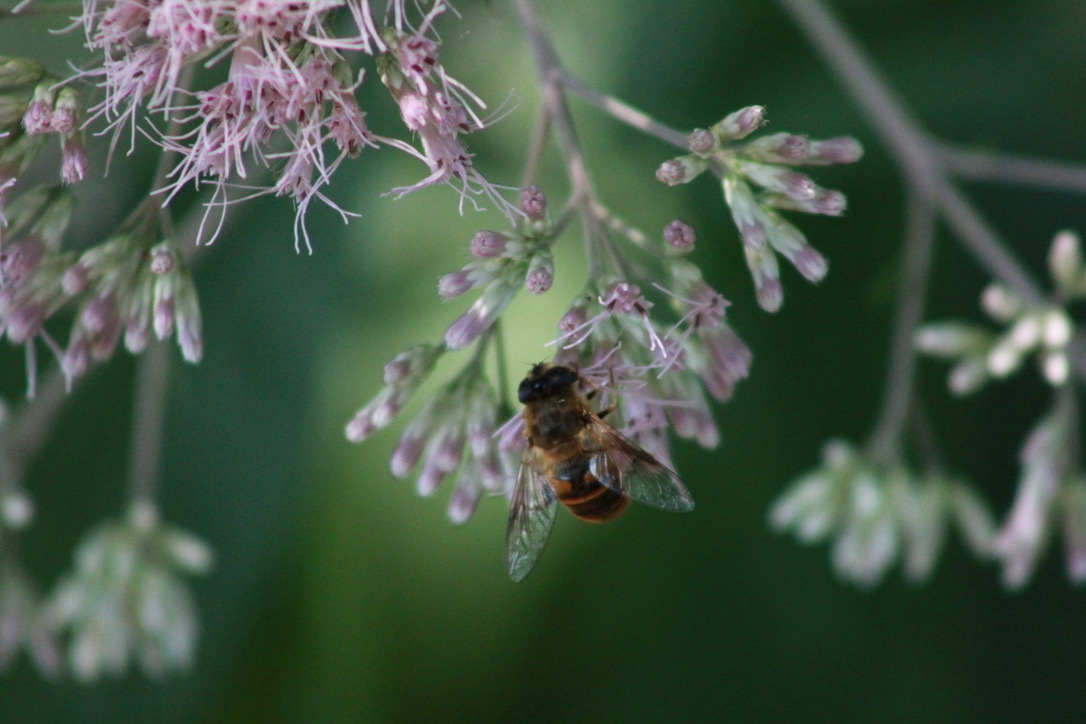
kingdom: Animalia
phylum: Arthropoda
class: Insecta
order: Diptera
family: Syrphidae
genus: Eristalis
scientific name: Eristalis tenax
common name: Drone fly
